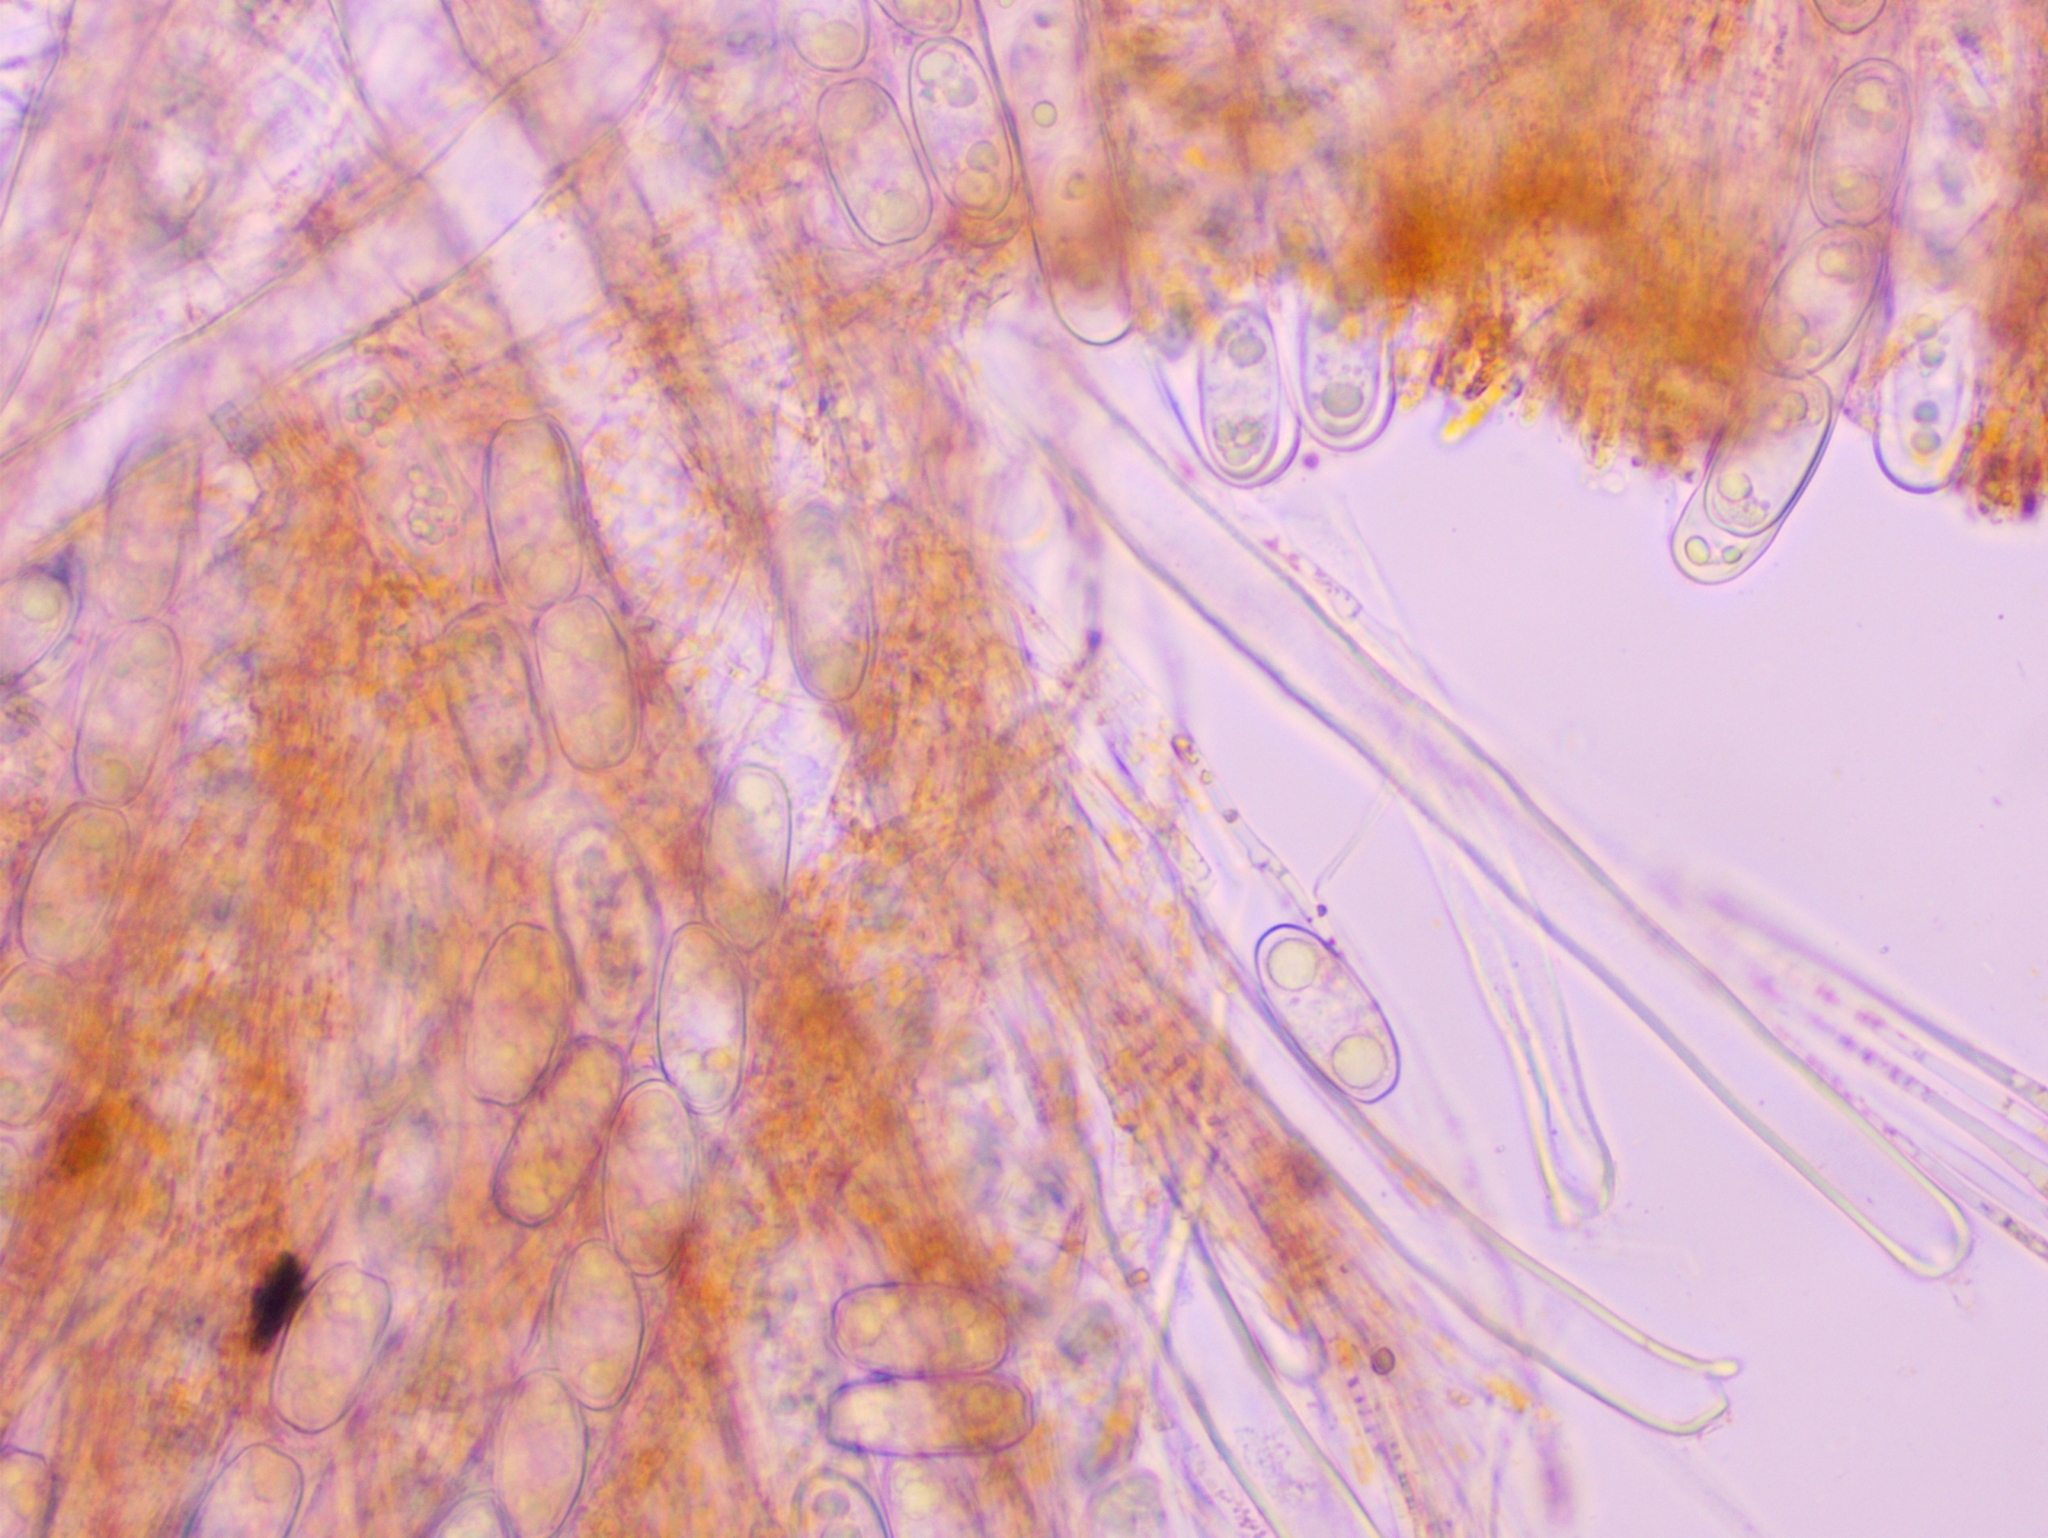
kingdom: Fungi
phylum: Ascomycota
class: Pezizomycetes
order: Pezizales
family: Sarcoscyphaceae
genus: Sarcoscypha
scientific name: Sarcoscypha jurana
